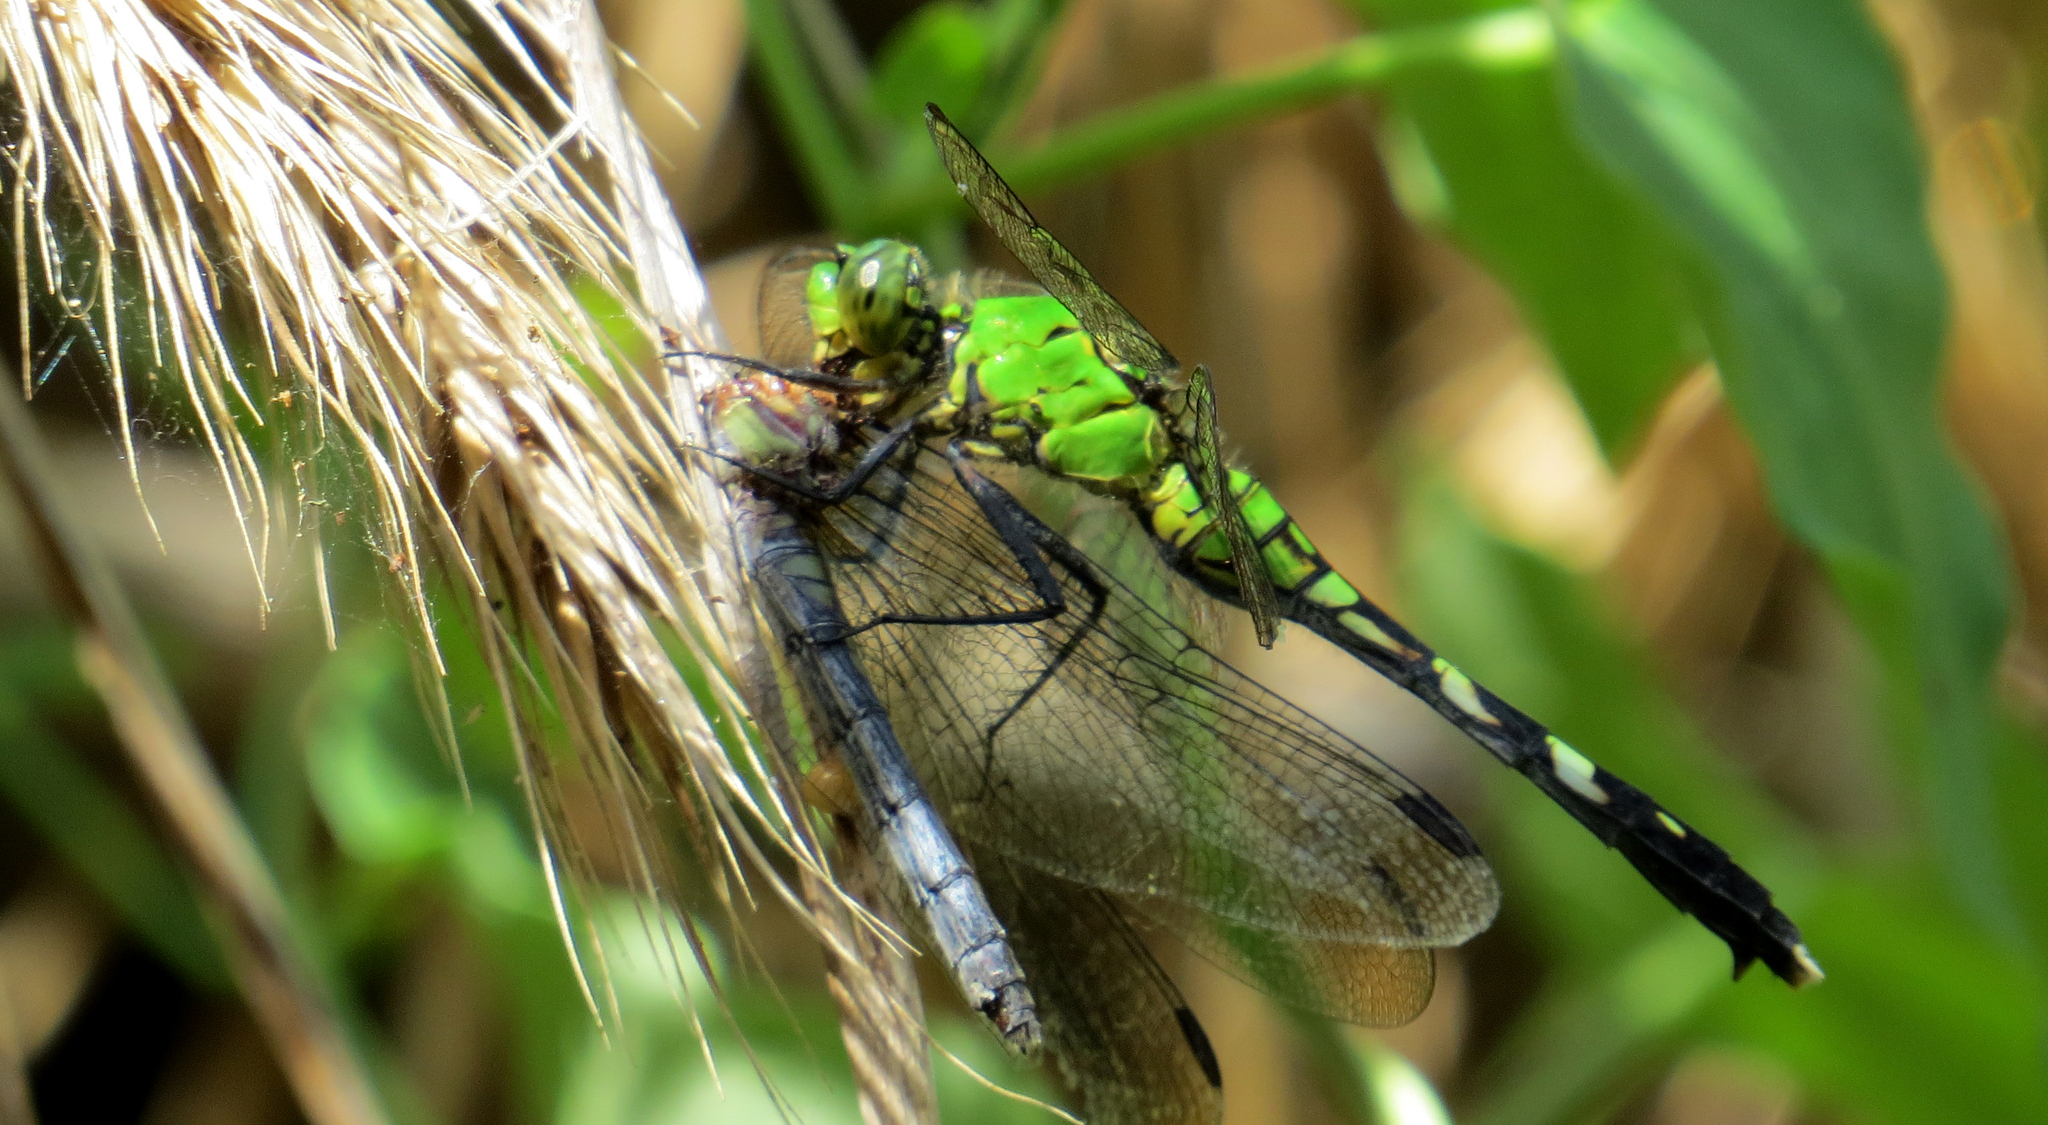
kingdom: Animalia
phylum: Arthropoda
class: Insecta
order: Odonata
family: Libellulidae
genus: Erythemis
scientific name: Erythemis simplicicollis
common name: Eastern pondhawk
